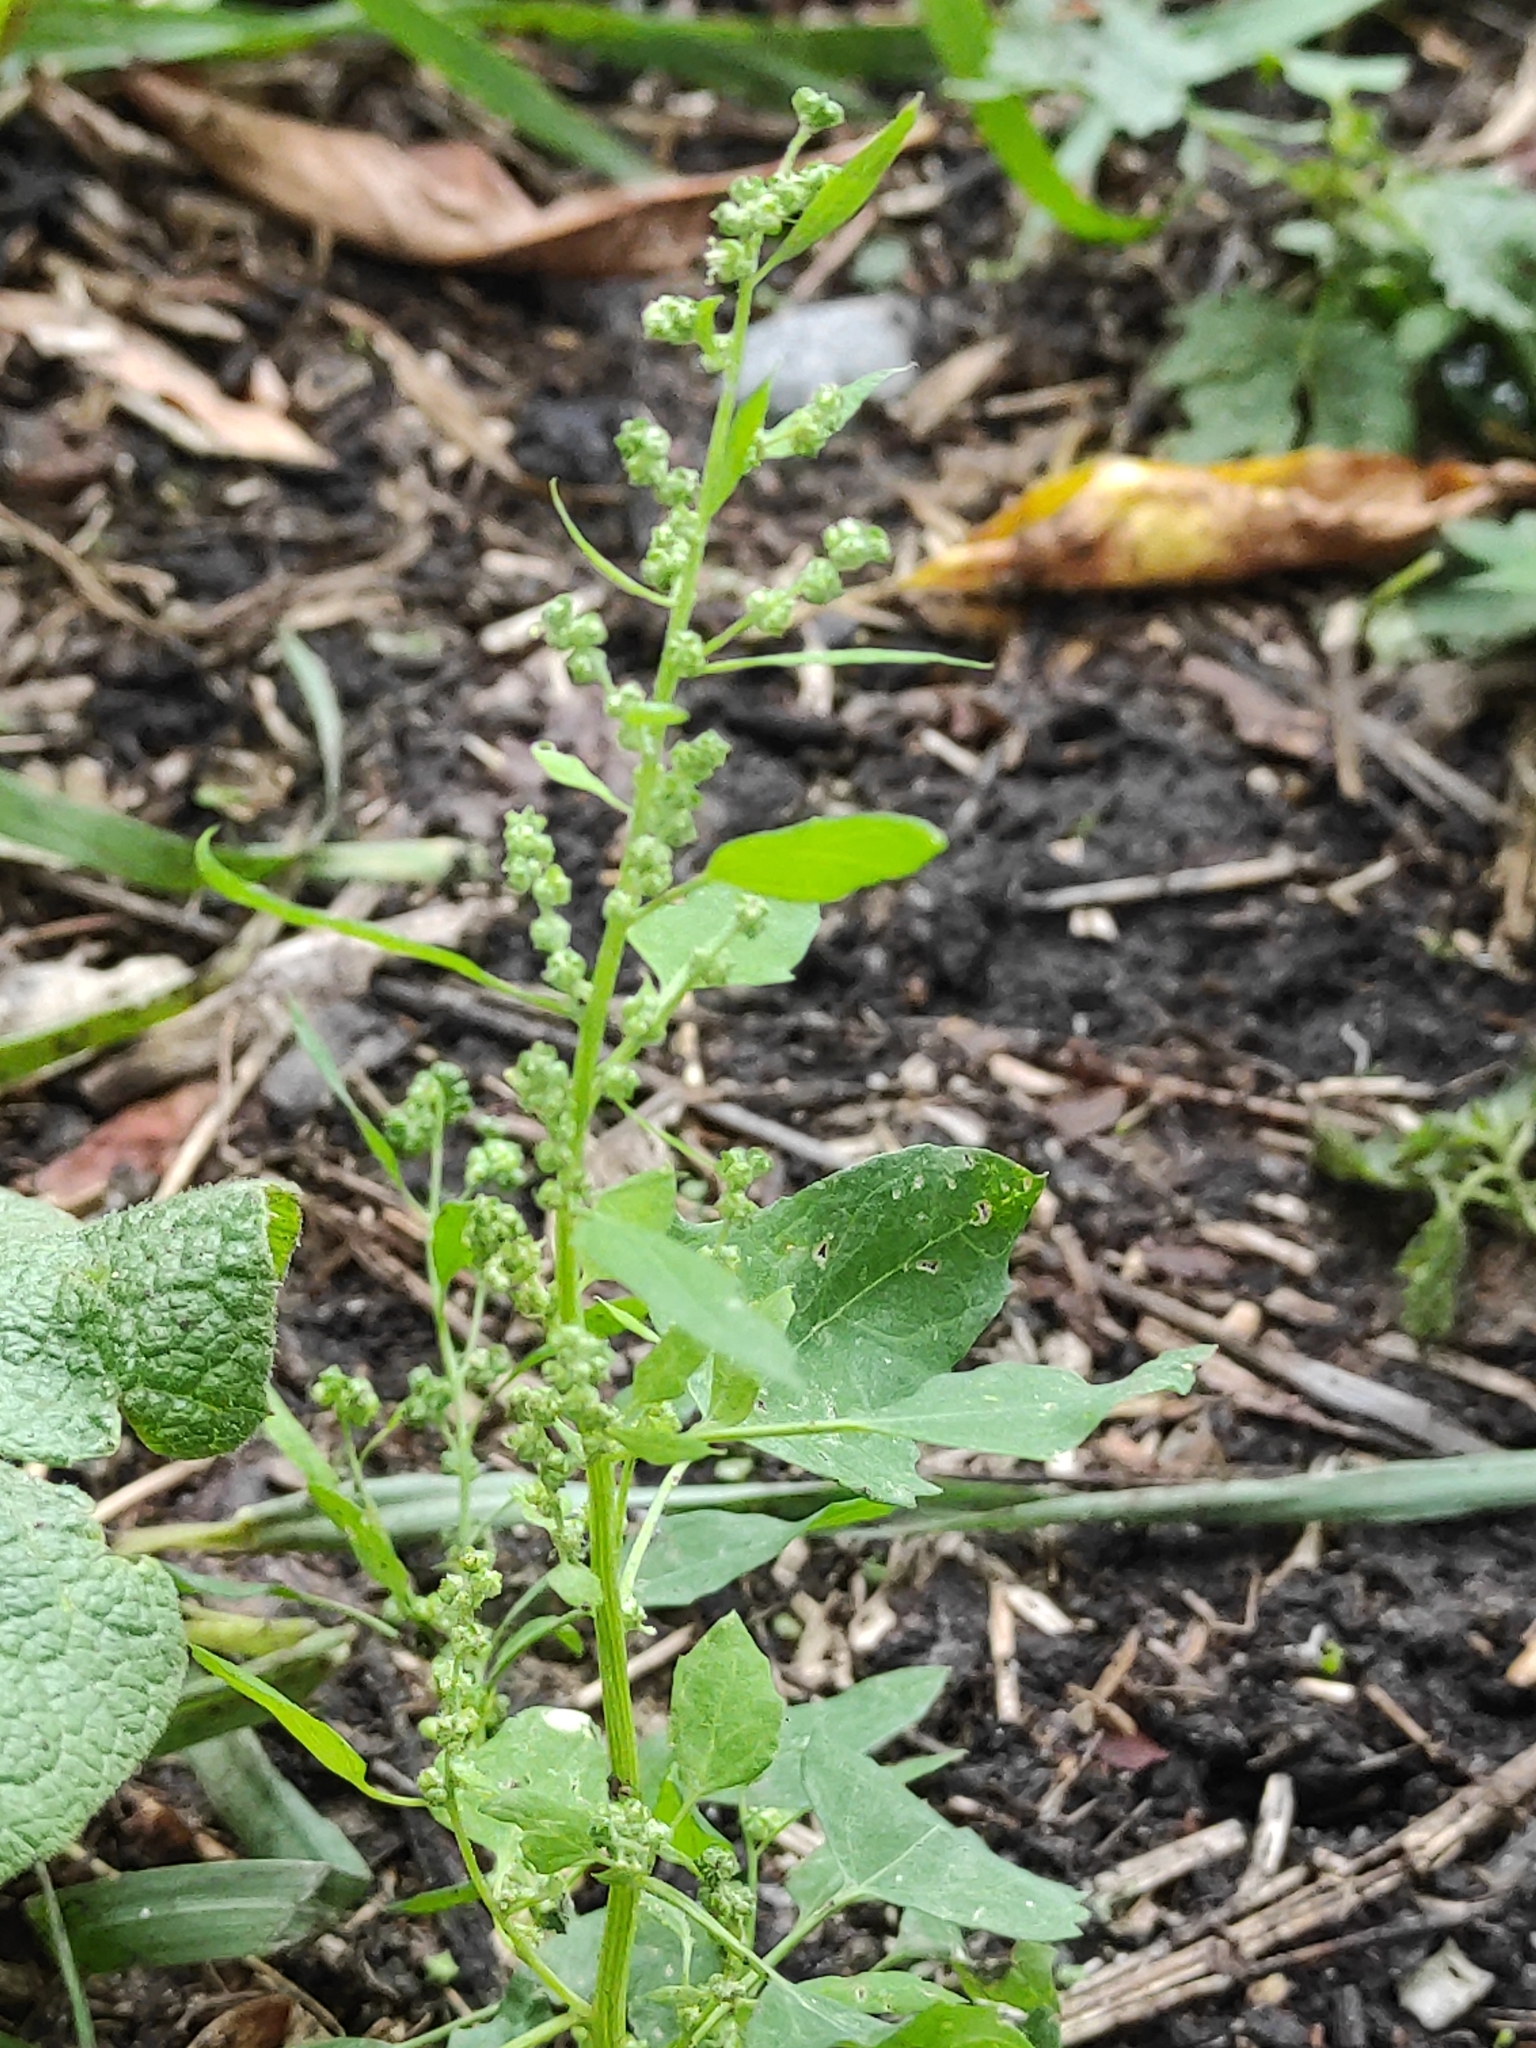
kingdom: Plantae
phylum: Tracheophyta
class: Magnoliopsida
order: Caryophyllales
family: Amaranthaceae
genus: Chenopodium
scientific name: Chenopodium album
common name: Fat-hen
